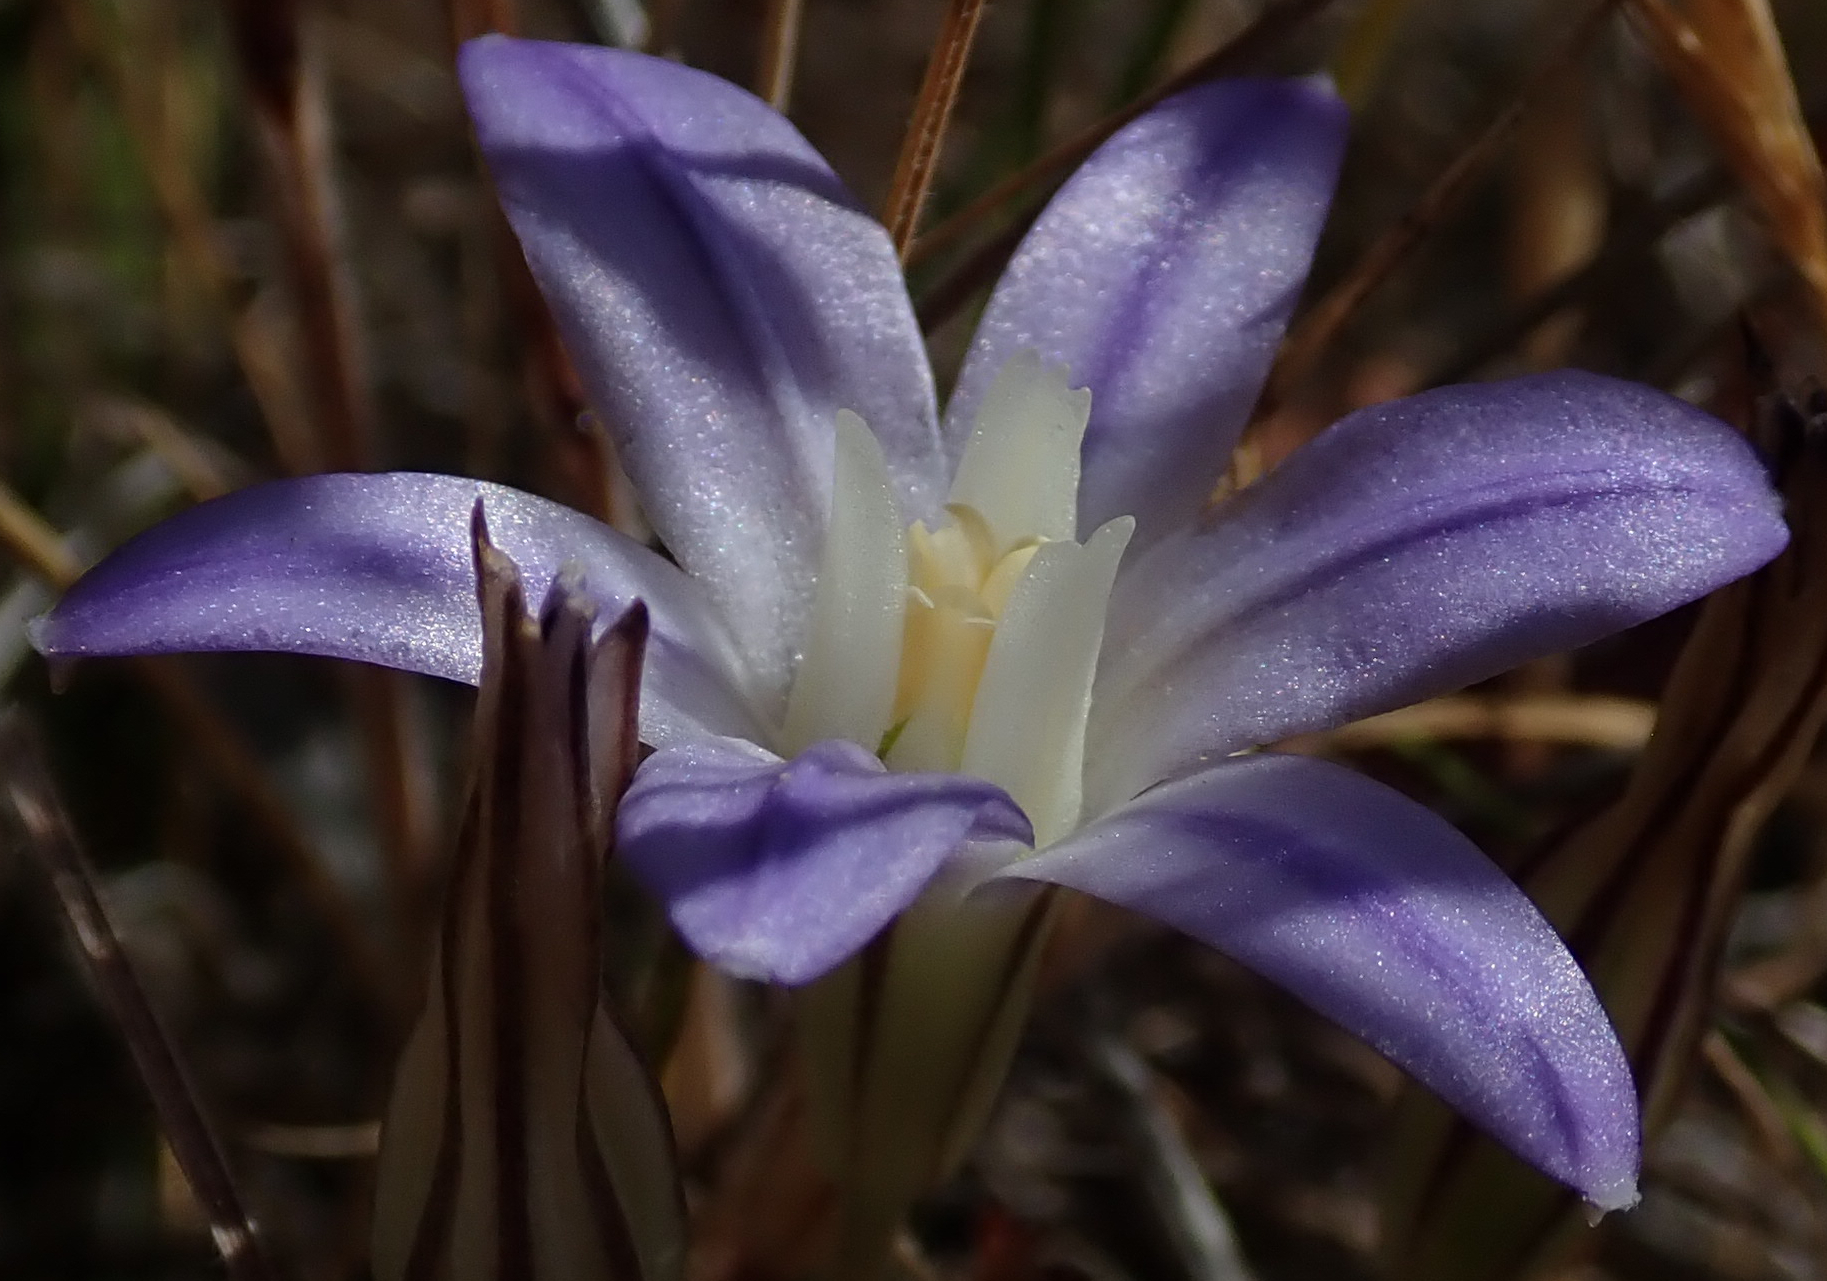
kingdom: Plantae
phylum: Tracheophyta
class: Liliopsida
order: Asparagales
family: Asparagaceae
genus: Brodiaea
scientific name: Brodiaea terrestris
